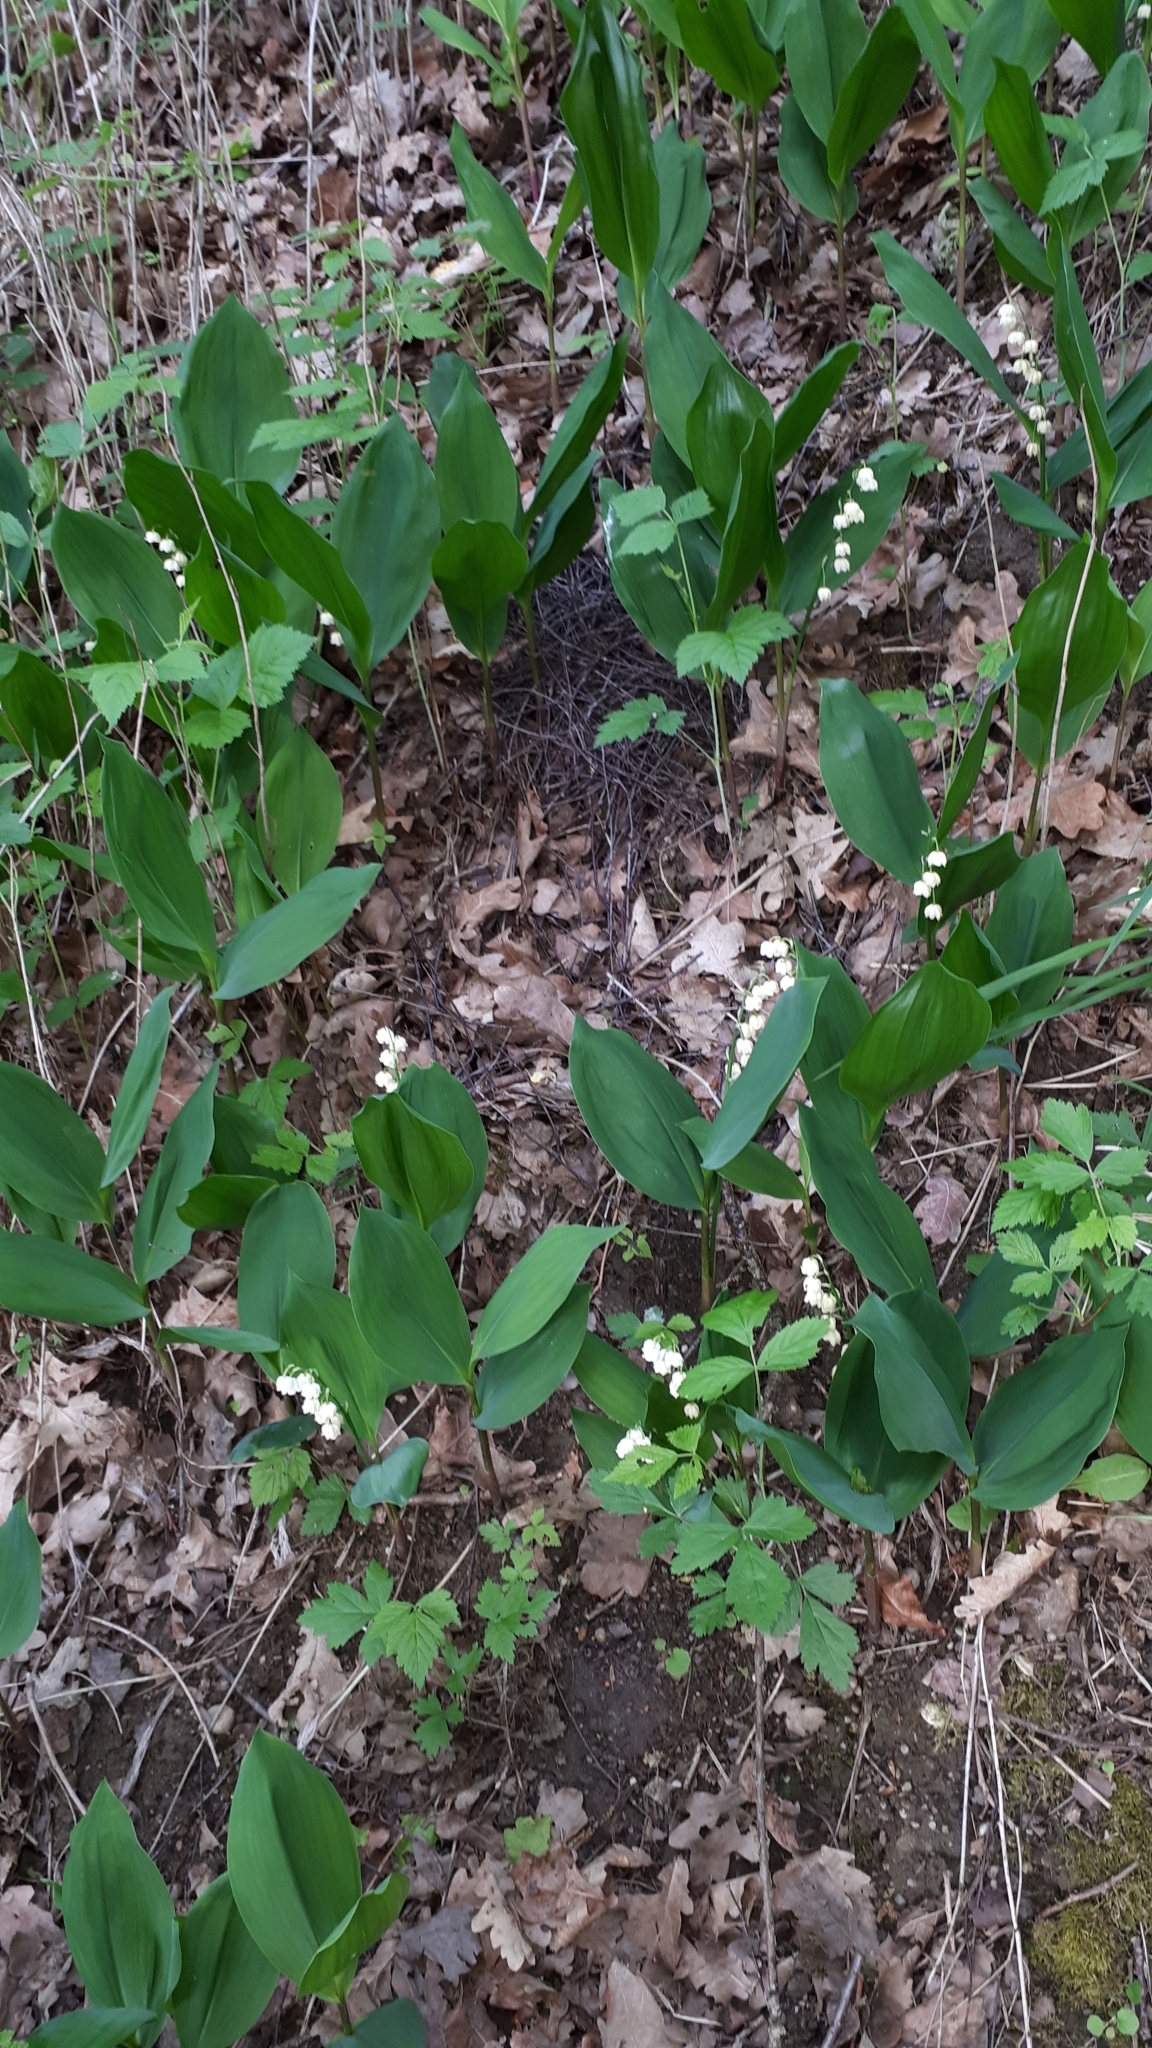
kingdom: Plantae
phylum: Tracheophyta
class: Liliopsida
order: Asparagales
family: Asparagaceae
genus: Convallaria
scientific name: Convallaria majalis
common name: Lily-of-the-valley
